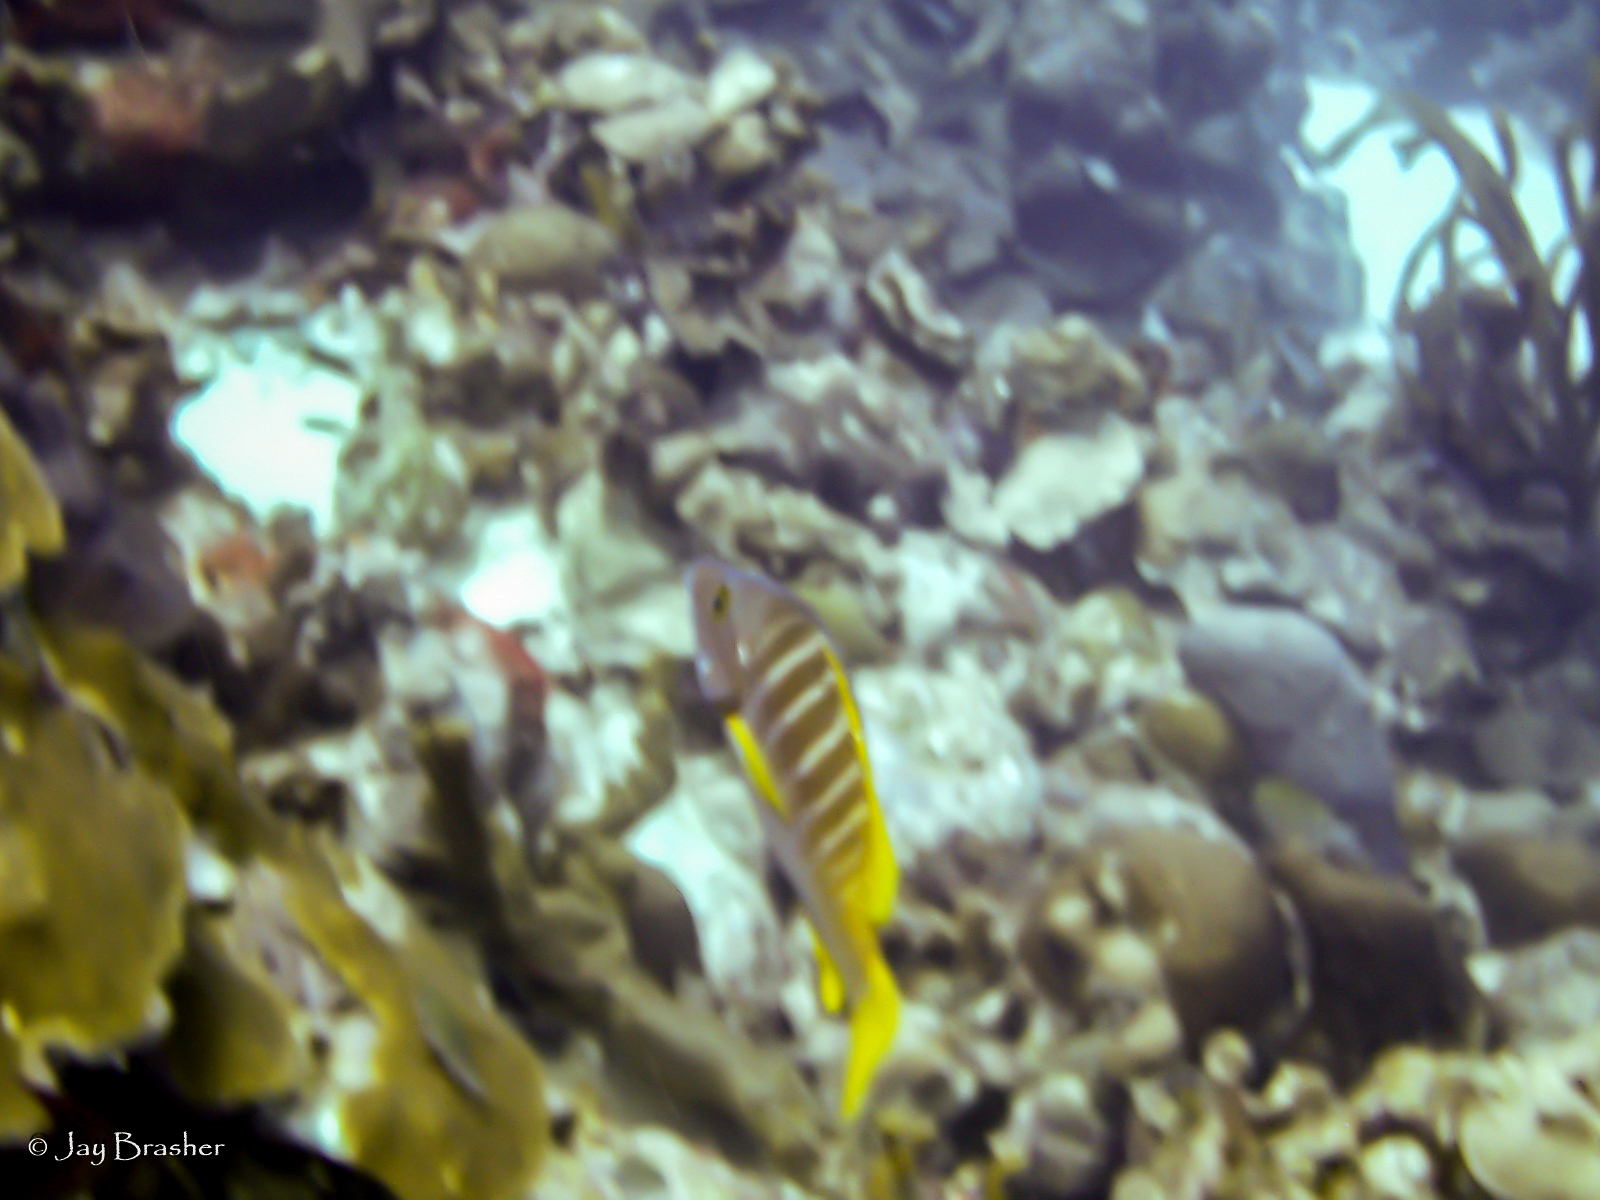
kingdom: Animalia
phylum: Chordata
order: Perciformes
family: Lutjanidae
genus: Lutjanus
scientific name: Lutjanus apodus
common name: Schoolmaster
